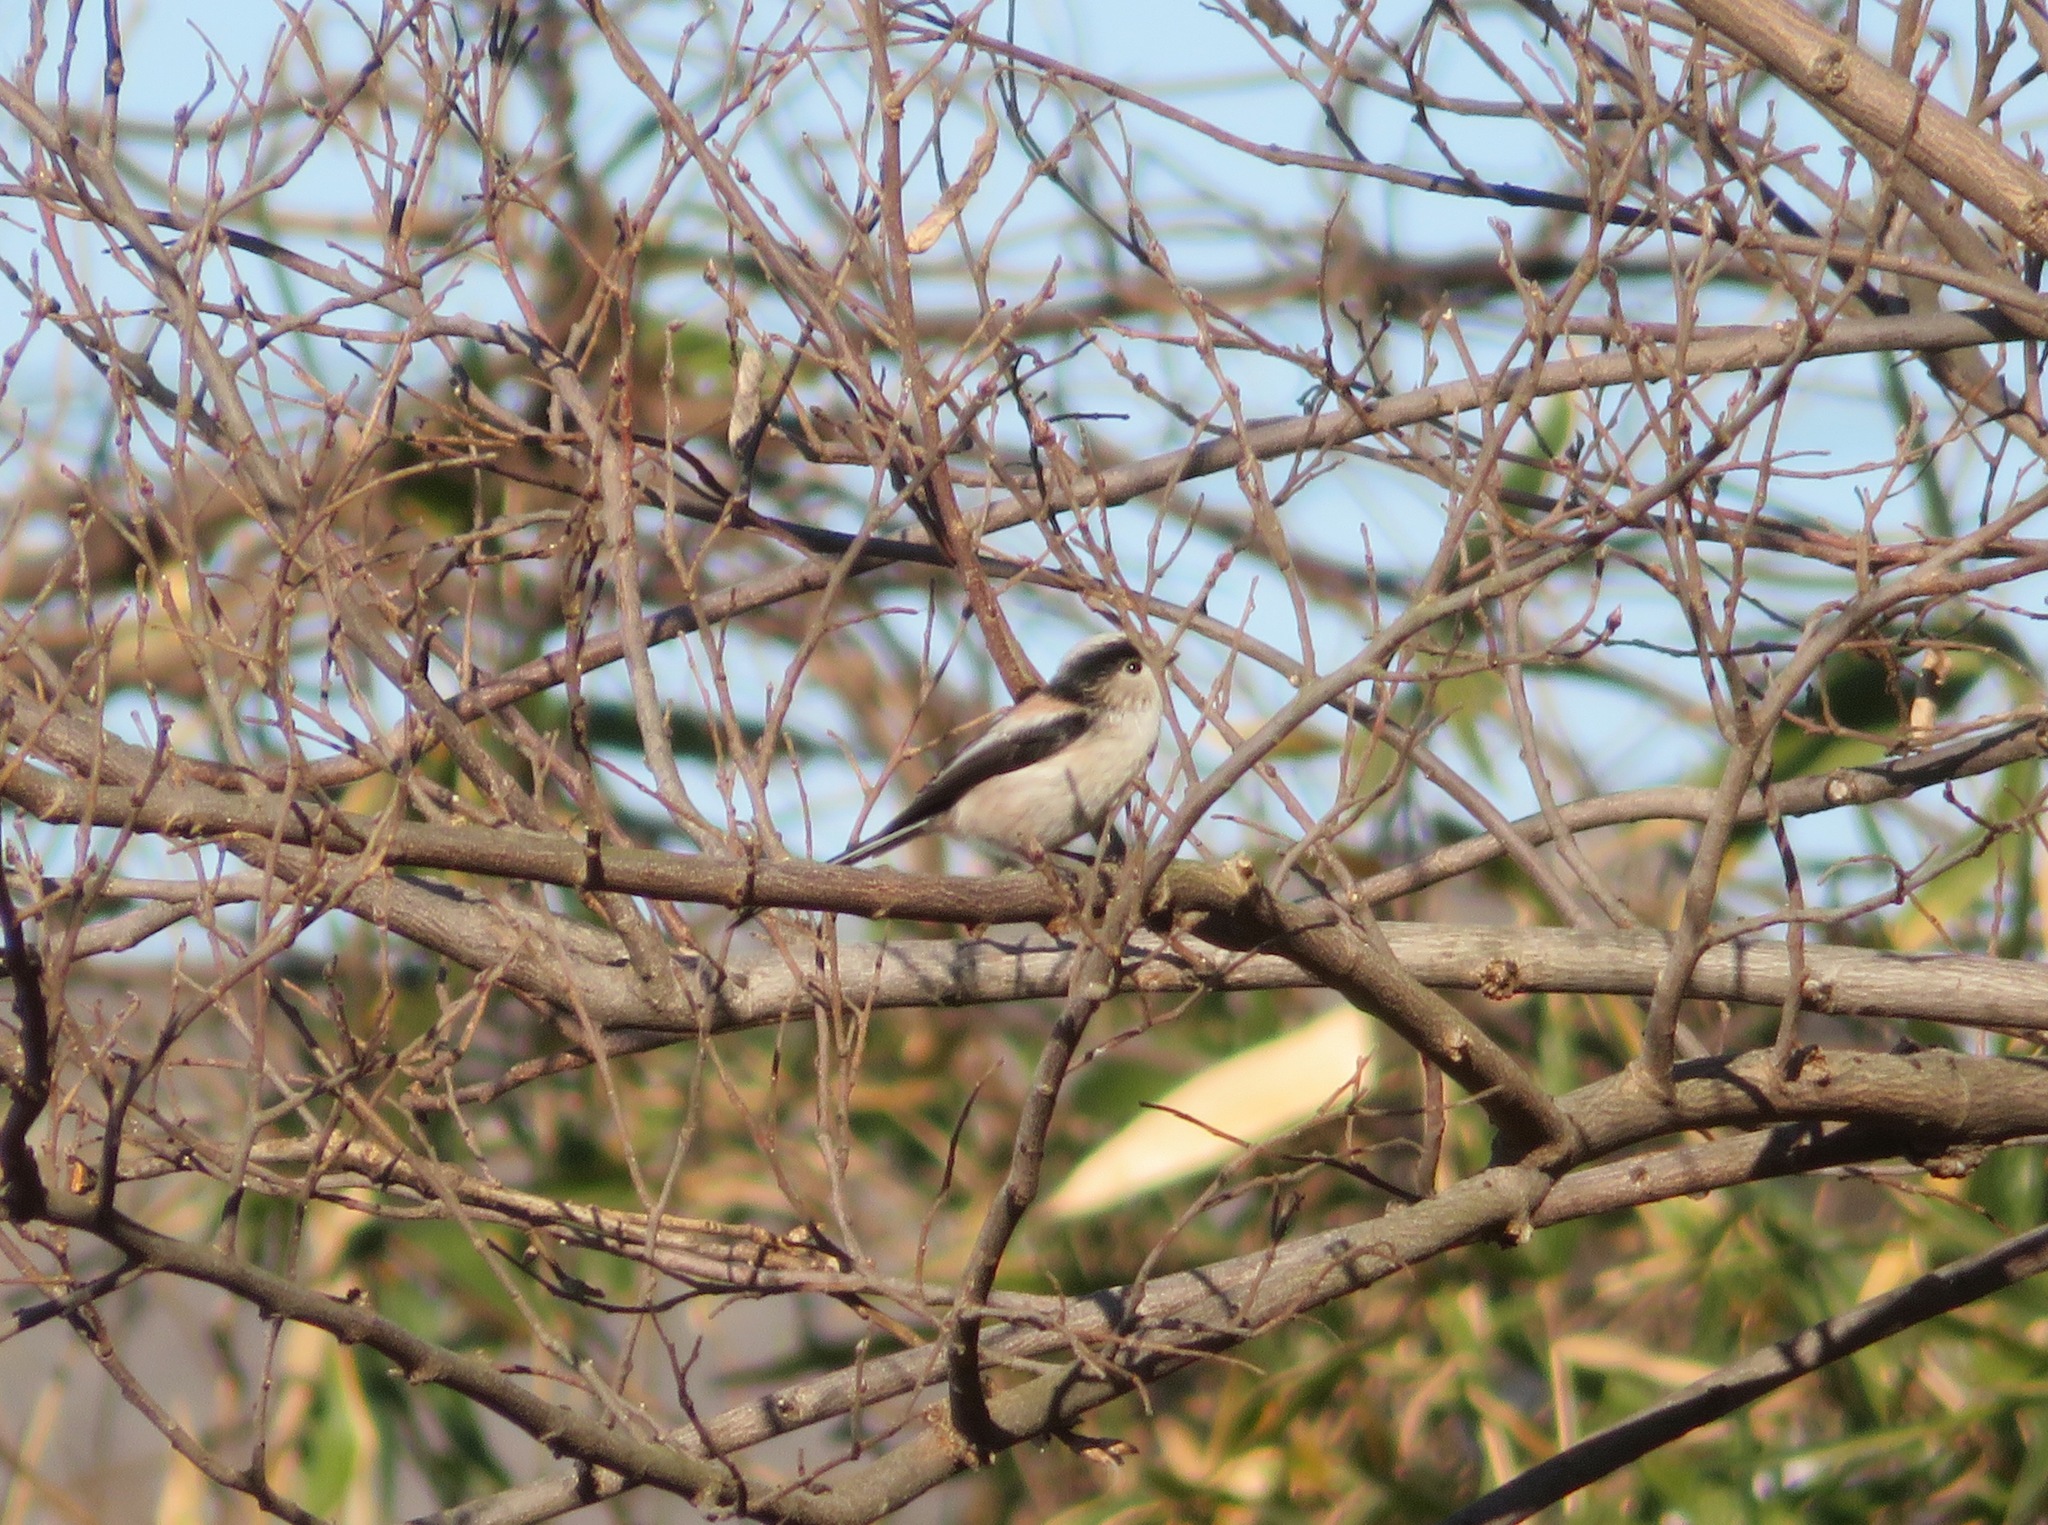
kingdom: Animalia
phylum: Chordata
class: Aves
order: Passeriformes
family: Aegithalidae
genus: Aegithalos
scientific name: Aegithalos caudatus
